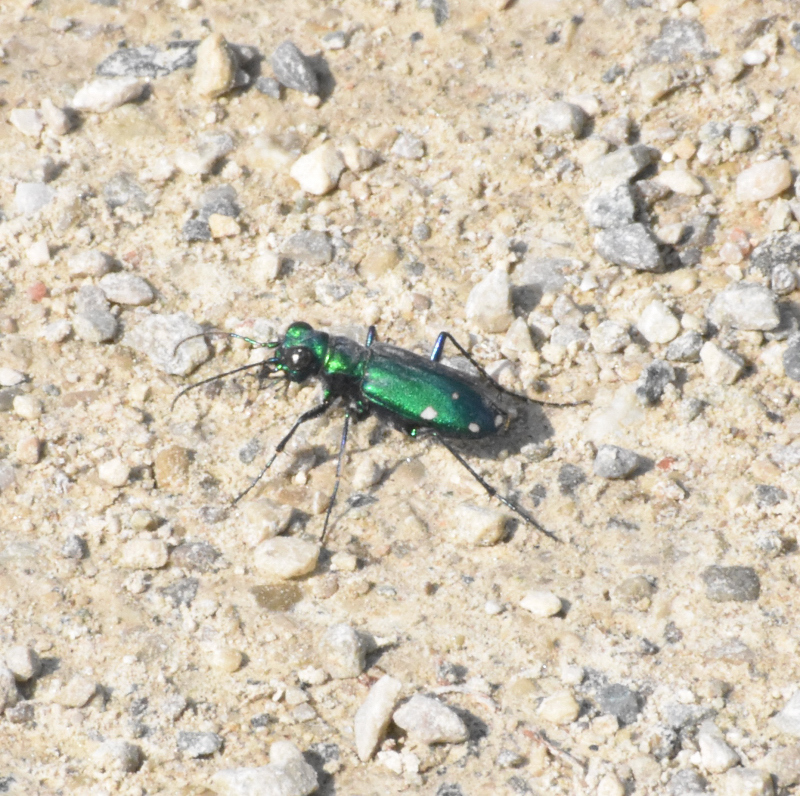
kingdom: Animalia
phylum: Arthropoda
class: Insecta
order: Coleoptera
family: Carabidae
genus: Cicindela
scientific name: Cicindela sexguttata
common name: Six-spotted tiger beetle
